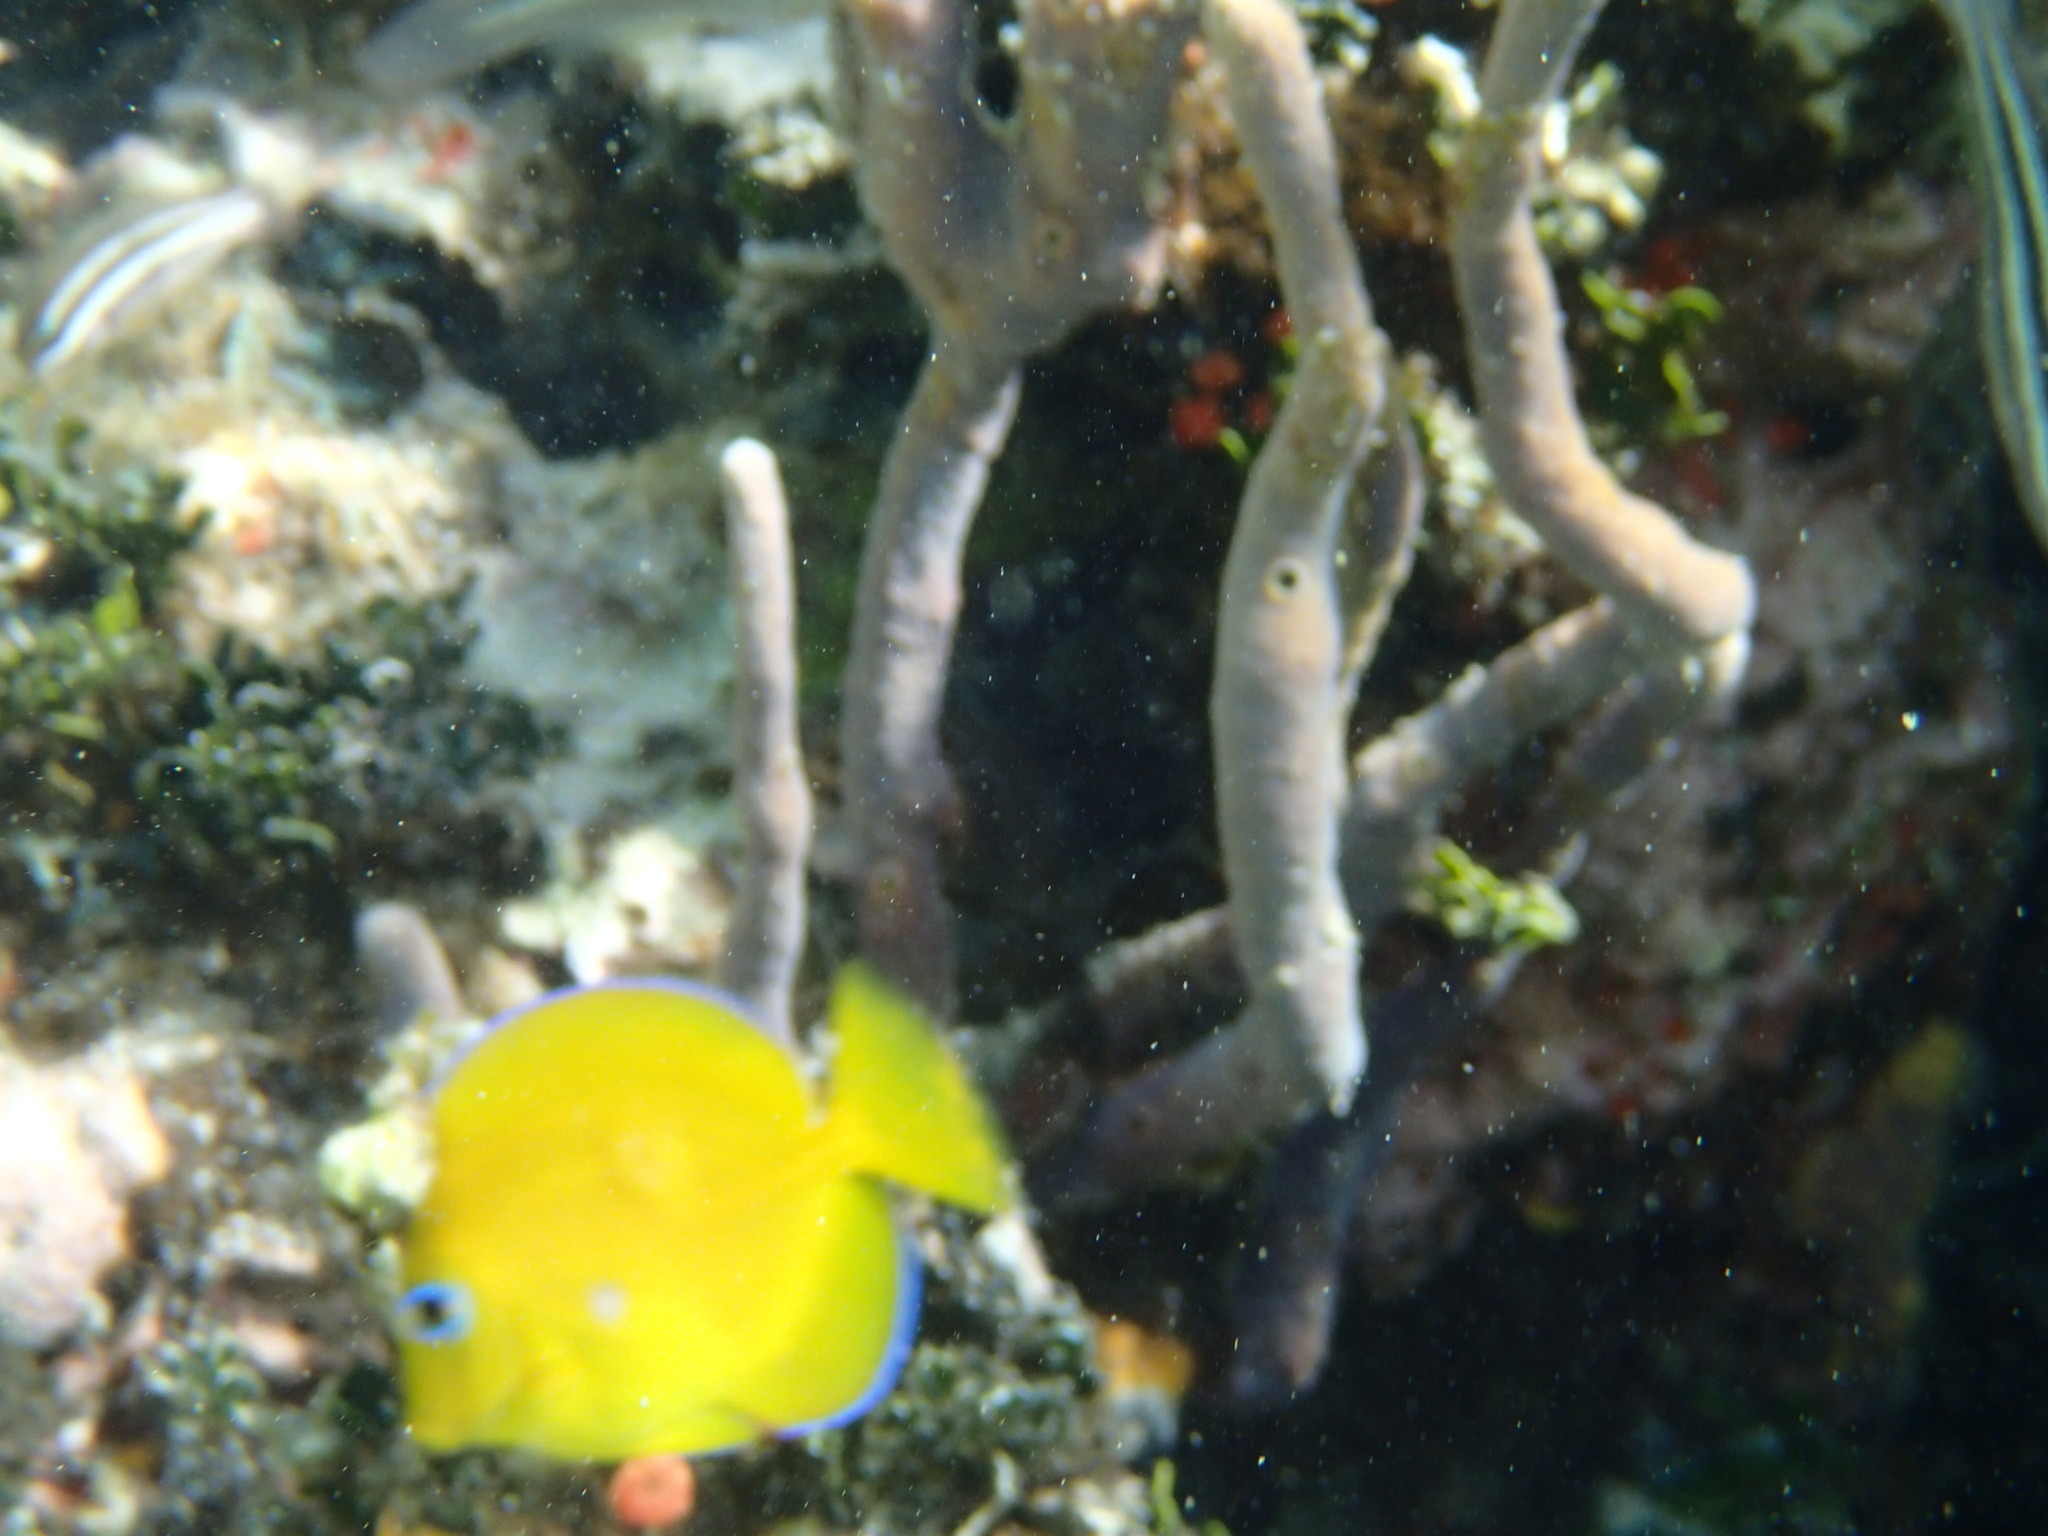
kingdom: Animalia
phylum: Chordata
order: Perciformes
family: Acanthuridae
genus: Acanthurus
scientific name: Acanthurus coeruleus
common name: Blue tang
